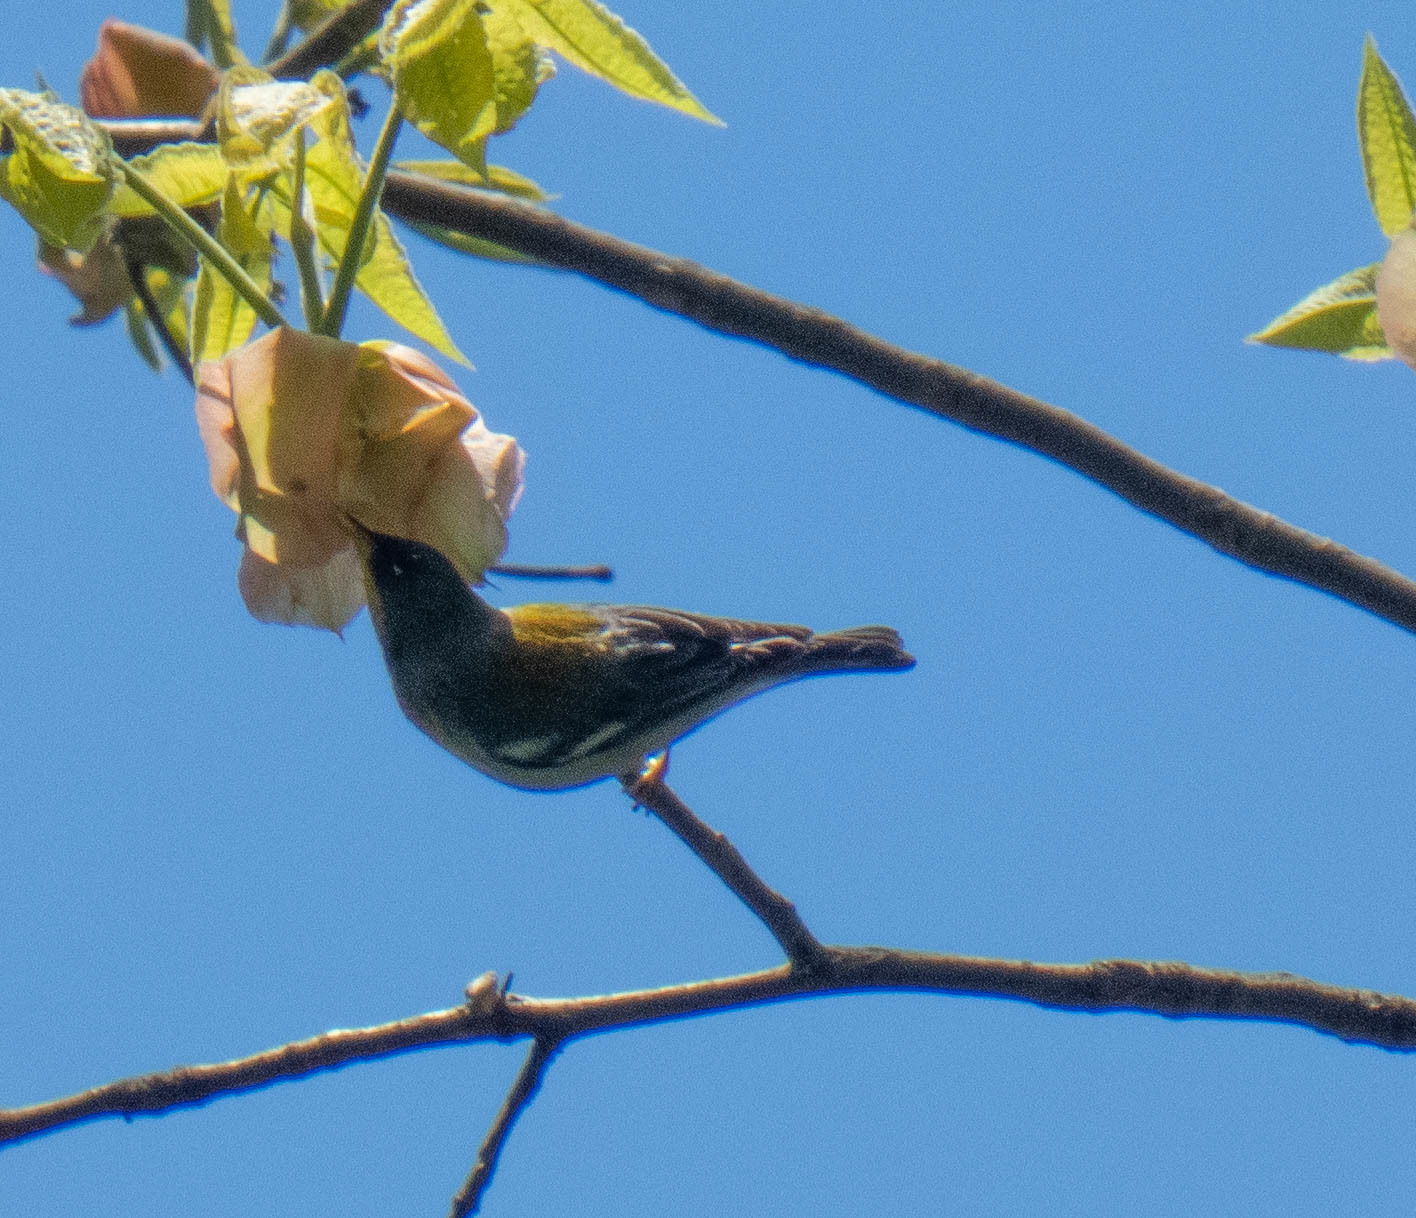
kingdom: Animalia
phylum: Chordata
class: Aves
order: Passeriformes
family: Parulidae
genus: Setophaga
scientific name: Setophaga americana
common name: Northern parula
